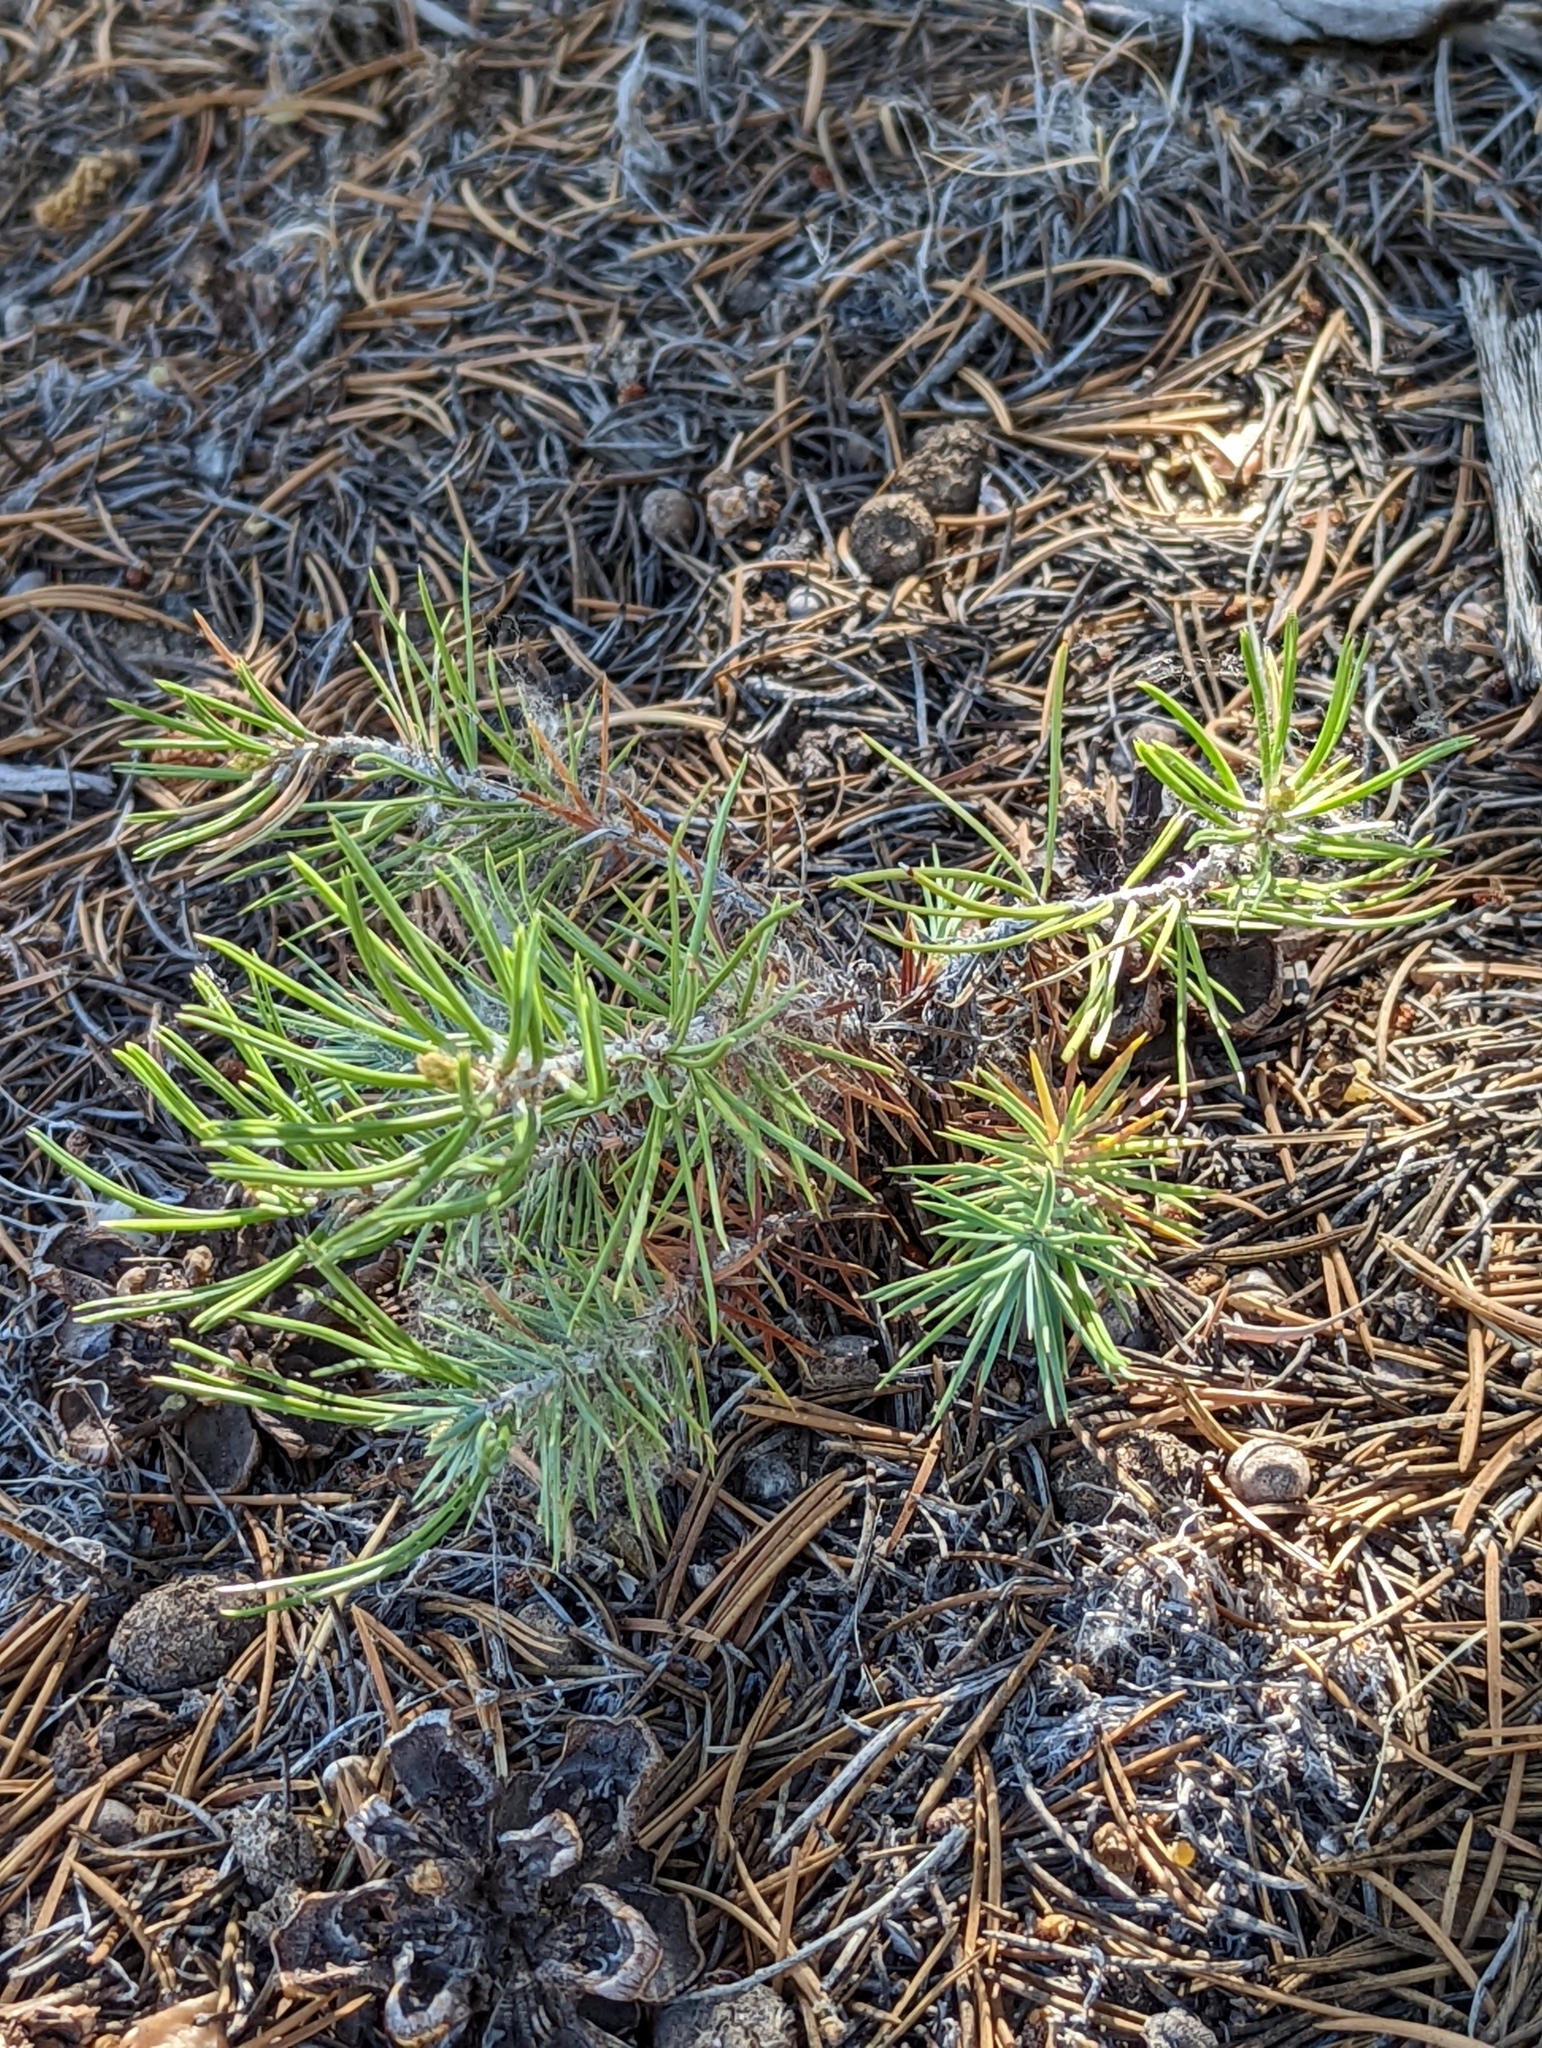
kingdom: Plantae
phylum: Tracheophyta
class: Pinopsida
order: Pinales
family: Pinaceae
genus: Pinus
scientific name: Pinus edulis
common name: Colorado pinyon
